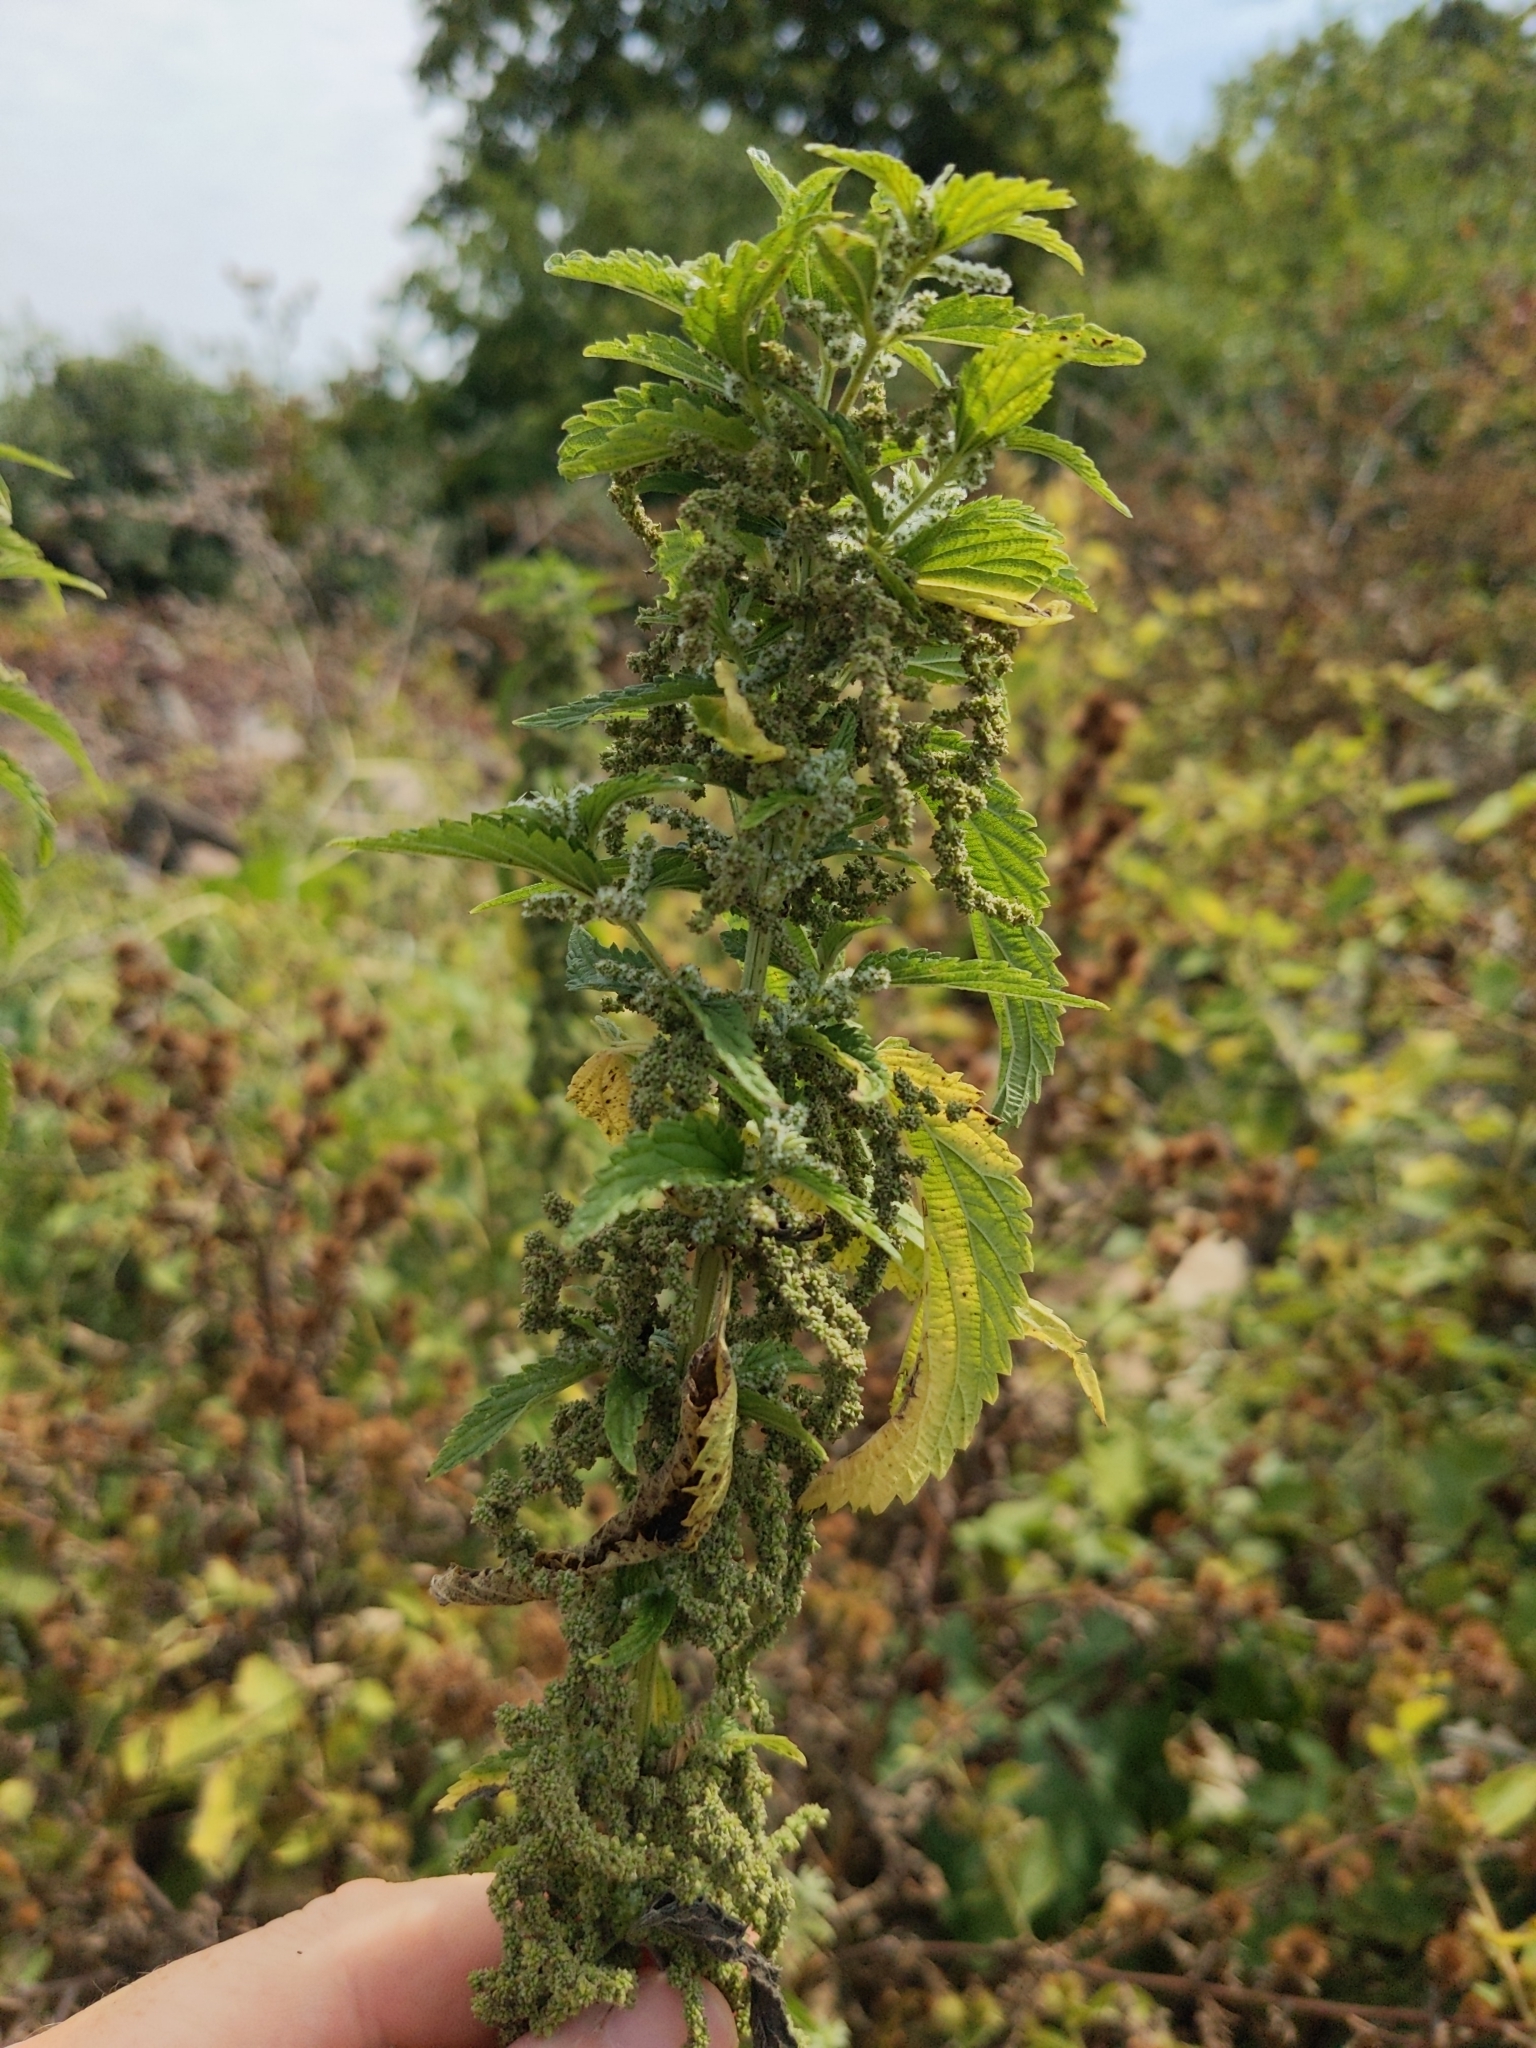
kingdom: Plantae
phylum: Tracheophyta
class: Magnoliopsida
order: Rosales
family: Urticaceae
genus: Urtica
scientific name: Urtica dioica
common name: Common nettle
